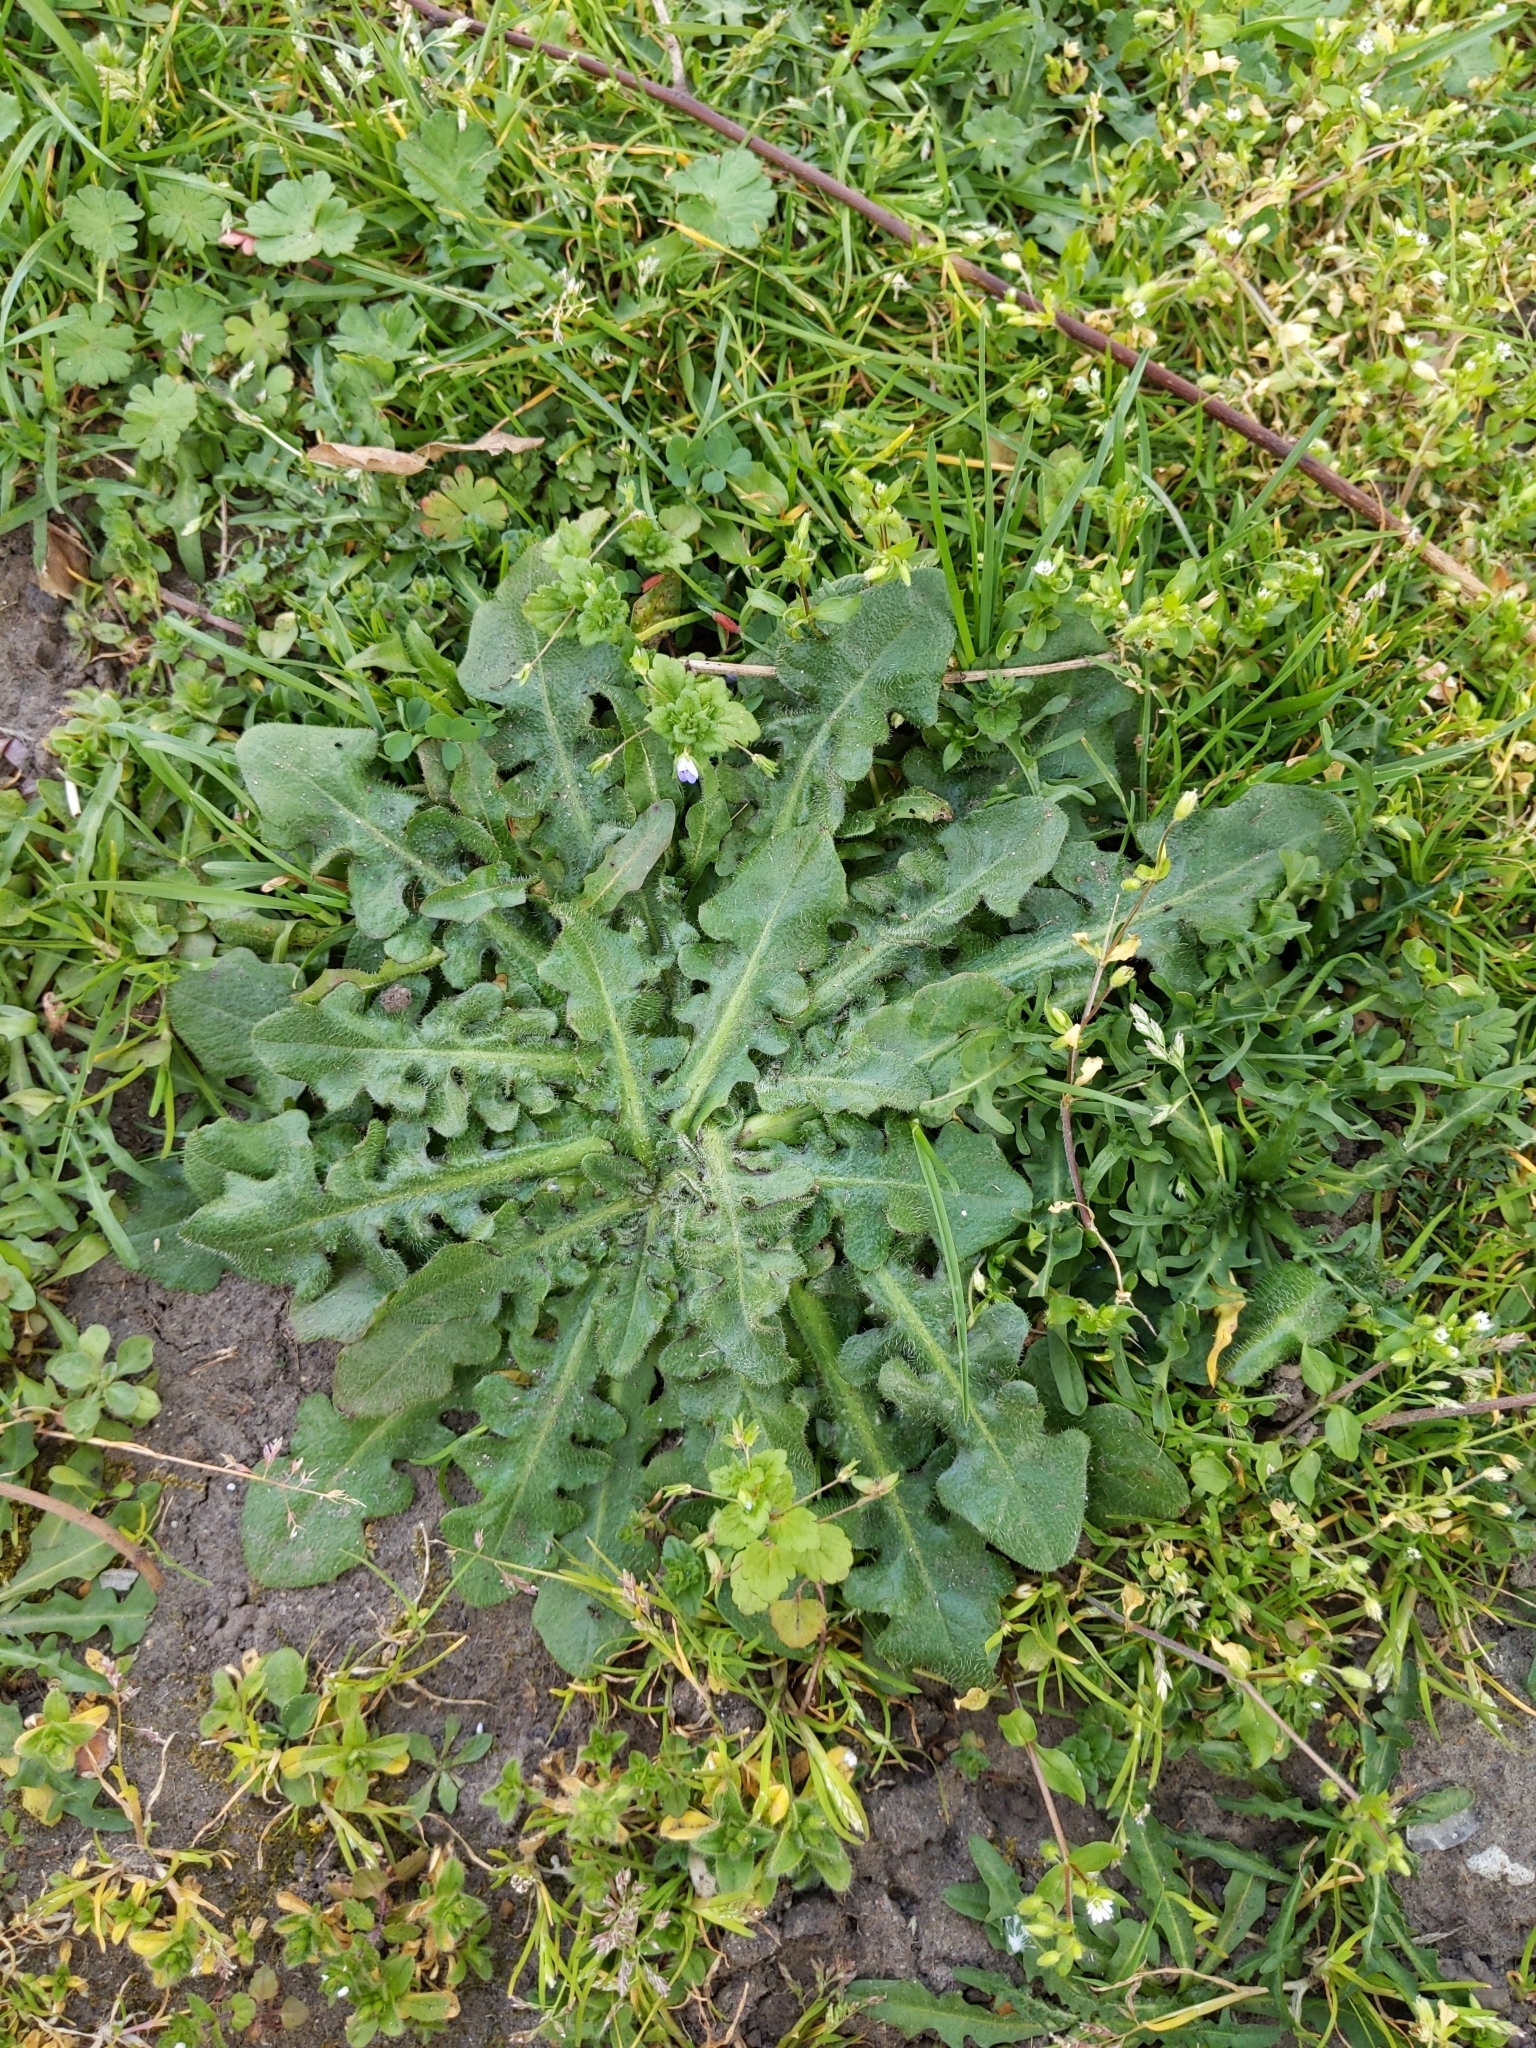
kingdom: Plantae
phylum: Tracheophyta
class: Magnoliopsida
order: Asterales
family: Asteraceae
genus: Hypochaeris
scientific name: Hypochaeris radicata
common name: Flatweed
